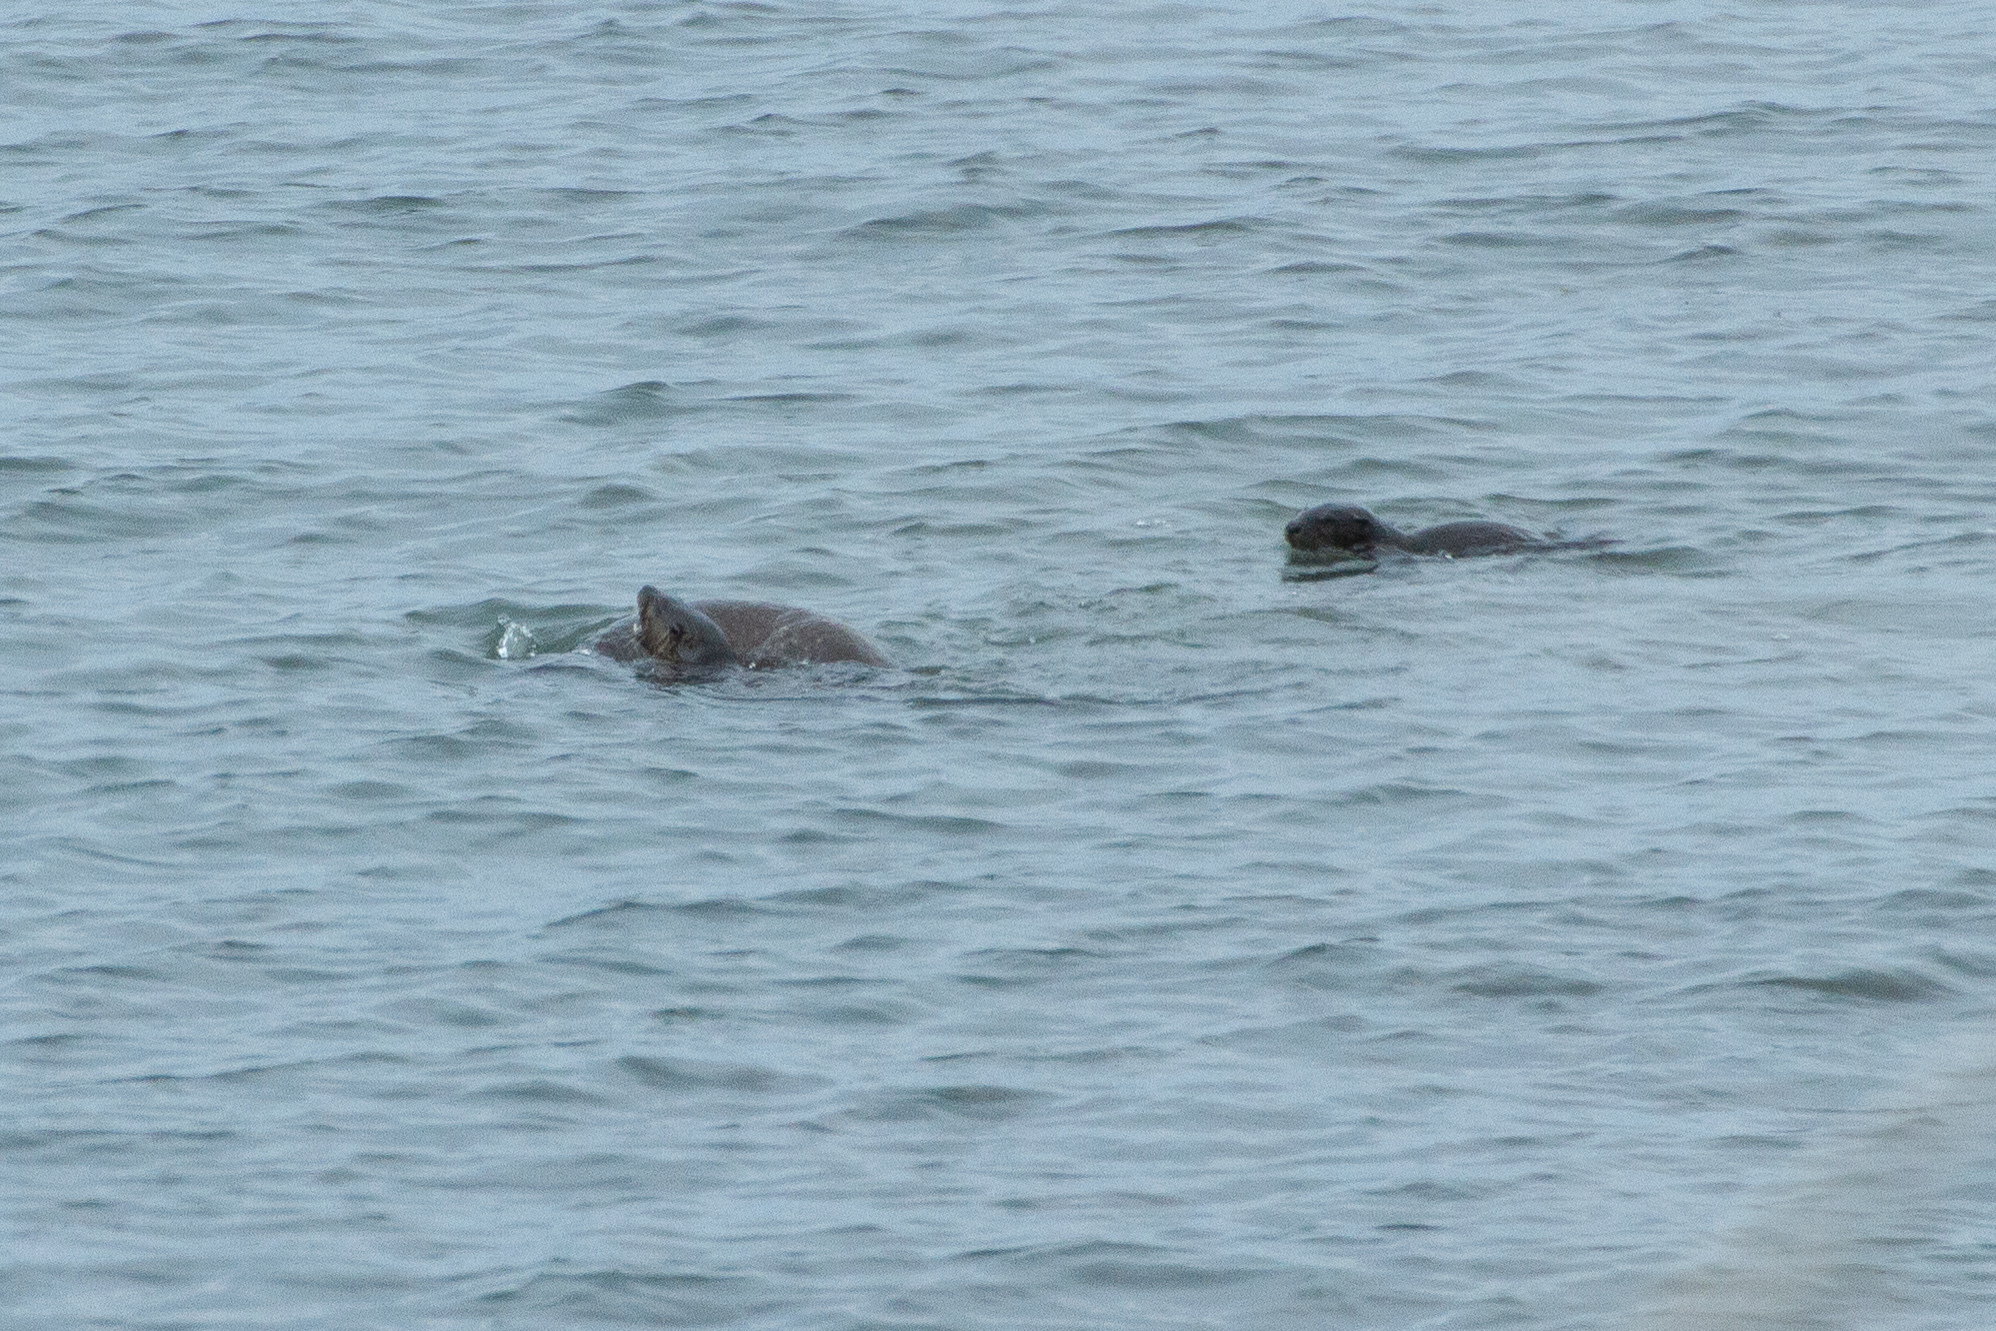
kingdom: Animalia
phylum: Chordata
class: Mammalia
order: Carnivora
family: Mustelidae
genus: Lontra
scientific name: Lontra canadensis
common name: North american river otter
